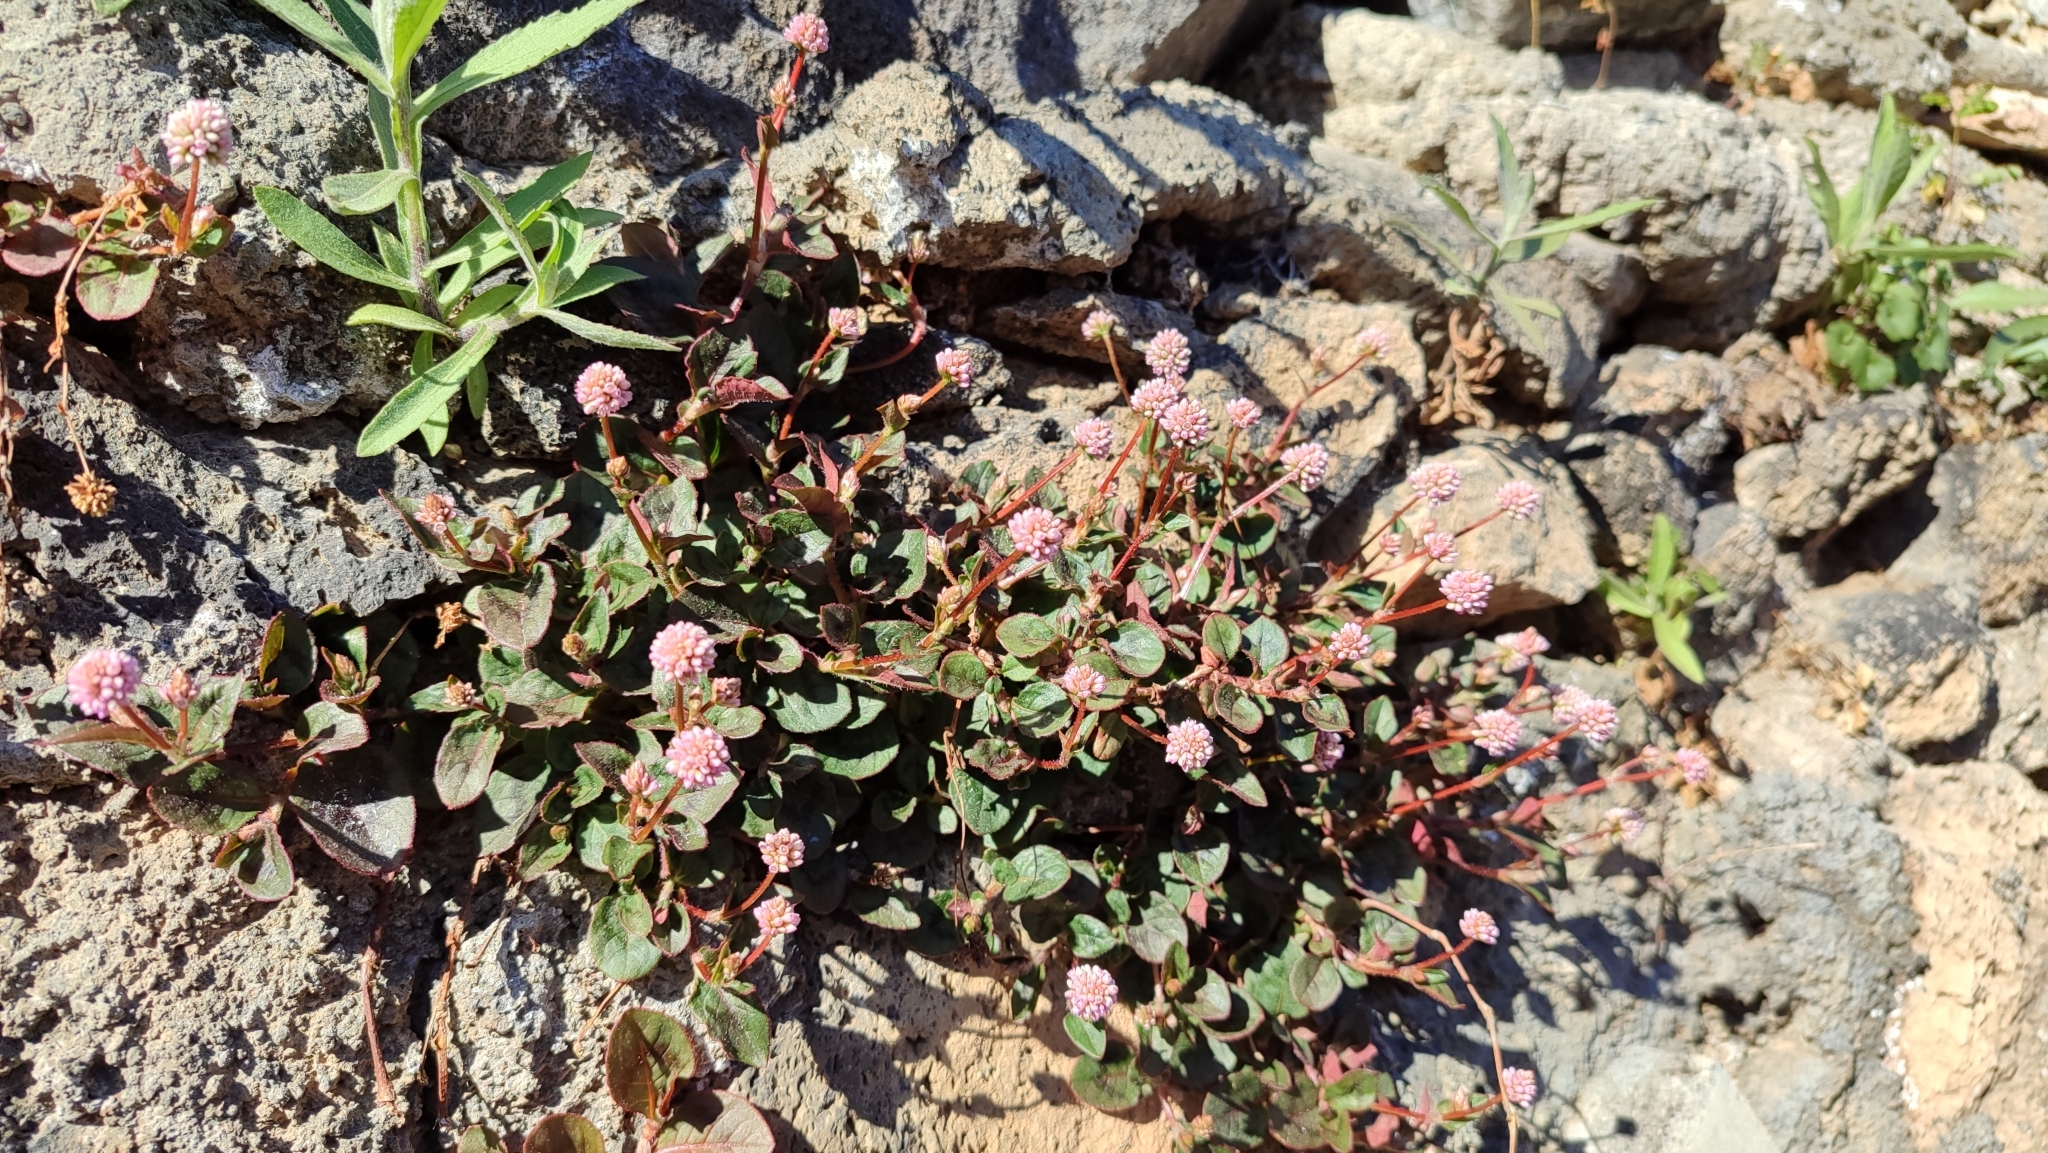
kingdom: Plantae
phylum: Tracheophyta
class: Magnoliopsida
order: Caryophyllales
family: Polygonaceae
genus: Persicaria
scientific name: Persicaria capitata
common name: Pinkhead smartweed
